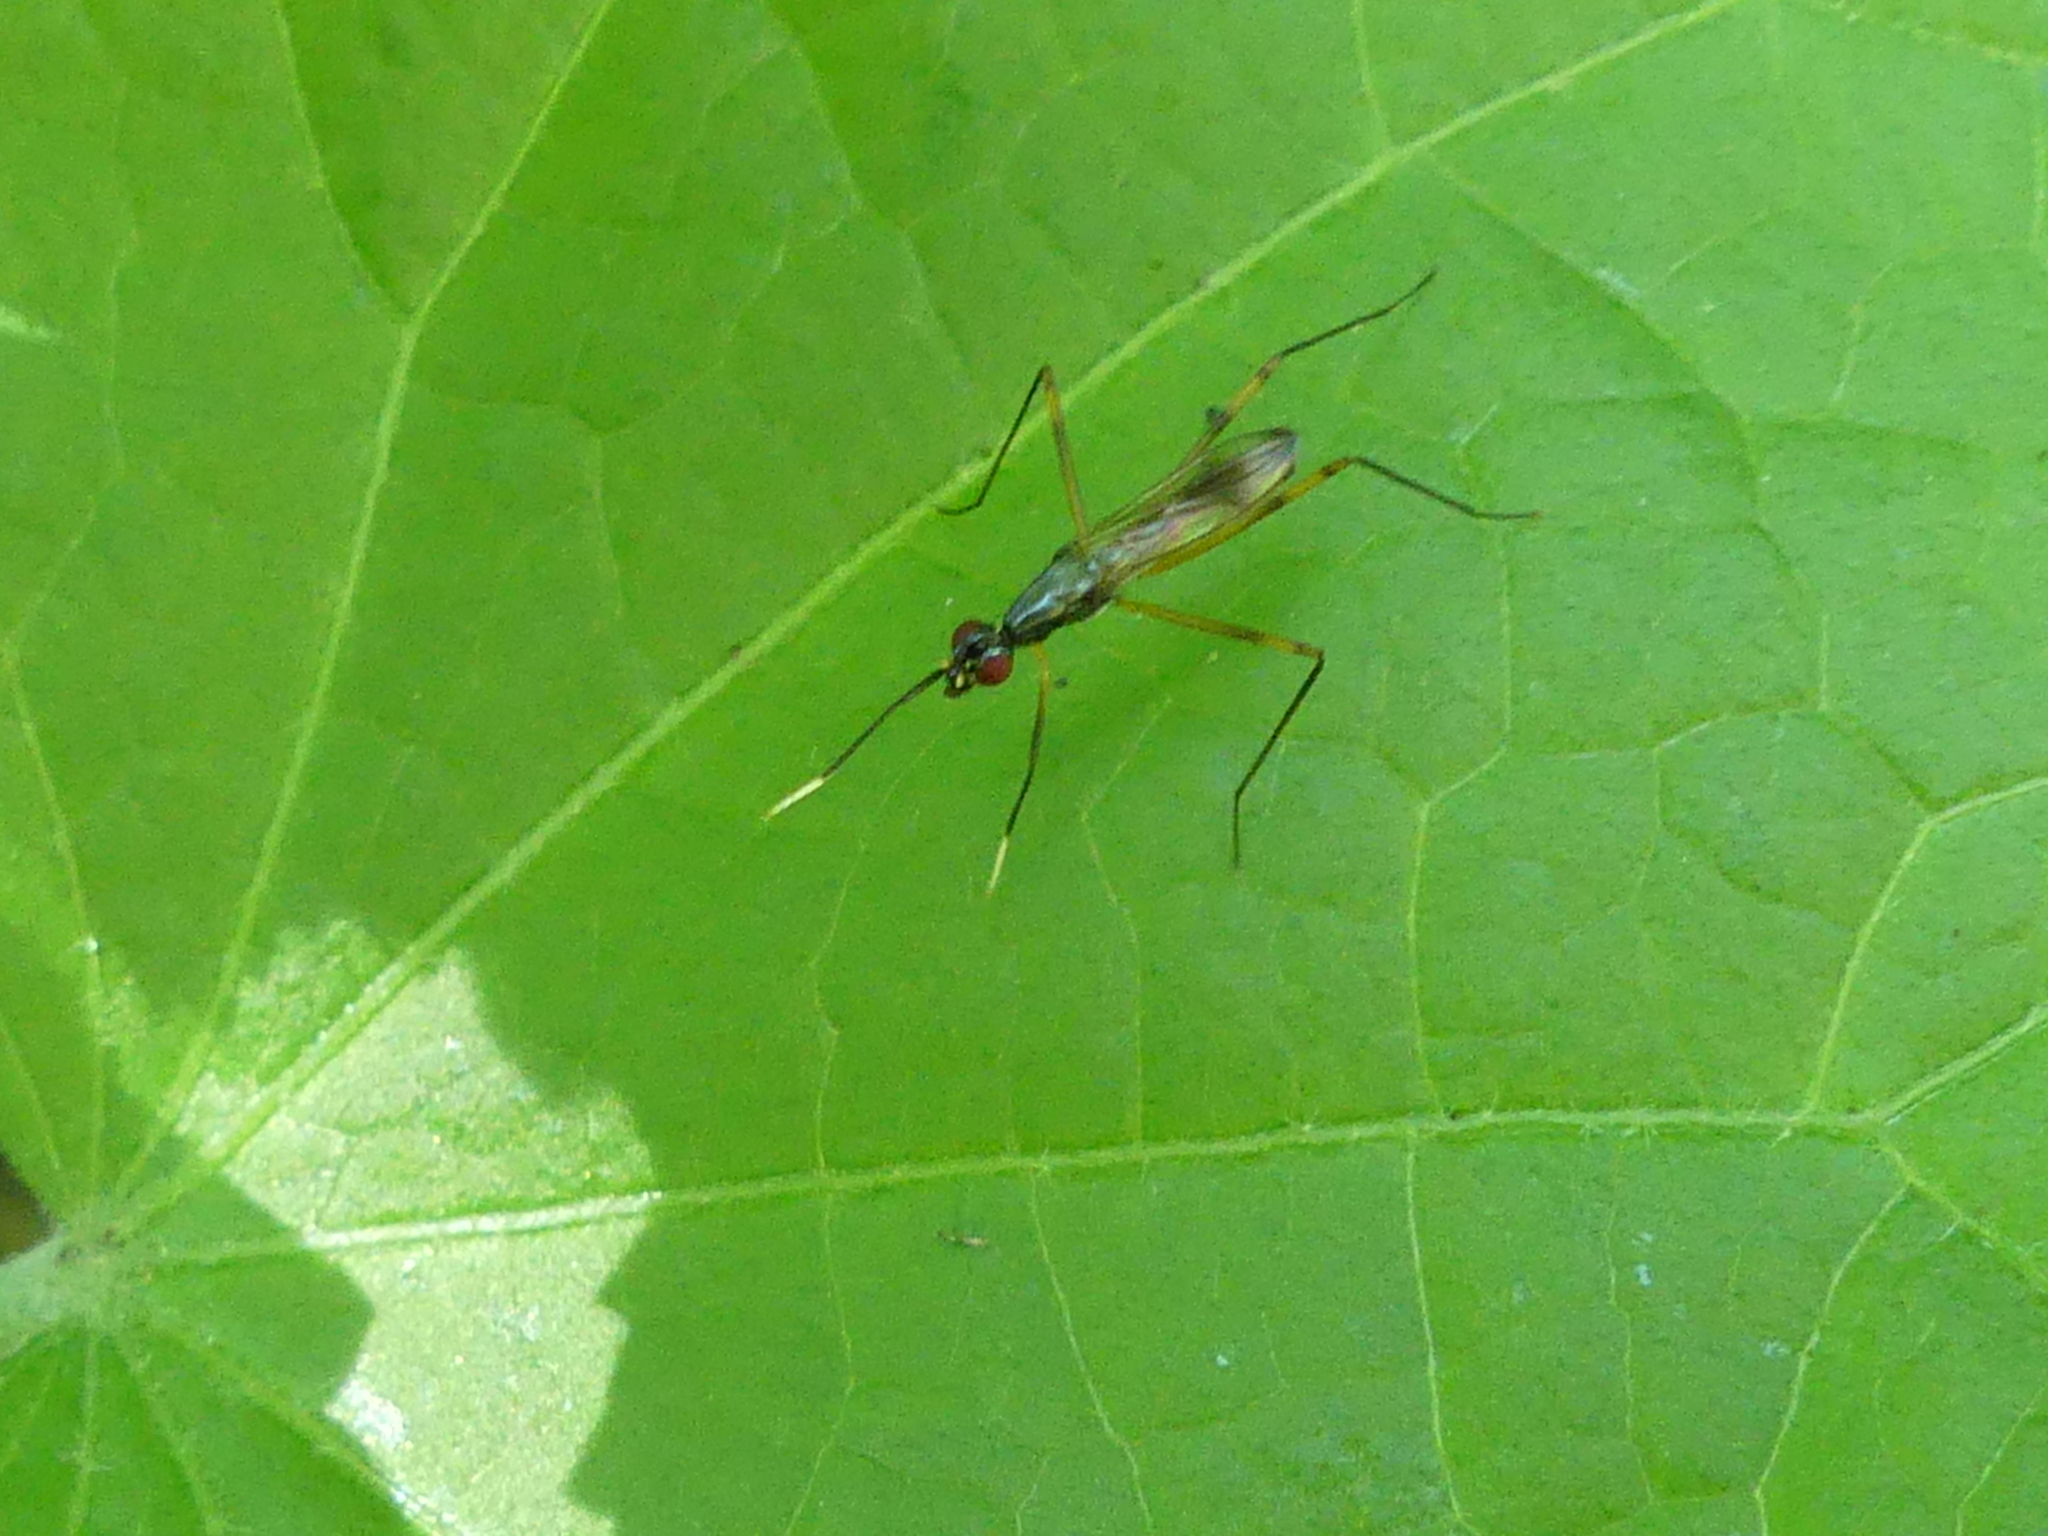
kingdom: Animalia
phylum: Arthropoda
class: Insecta
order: Diptera
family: Micropezidae
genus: Rainieria
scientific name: Rainieria antennaepes
